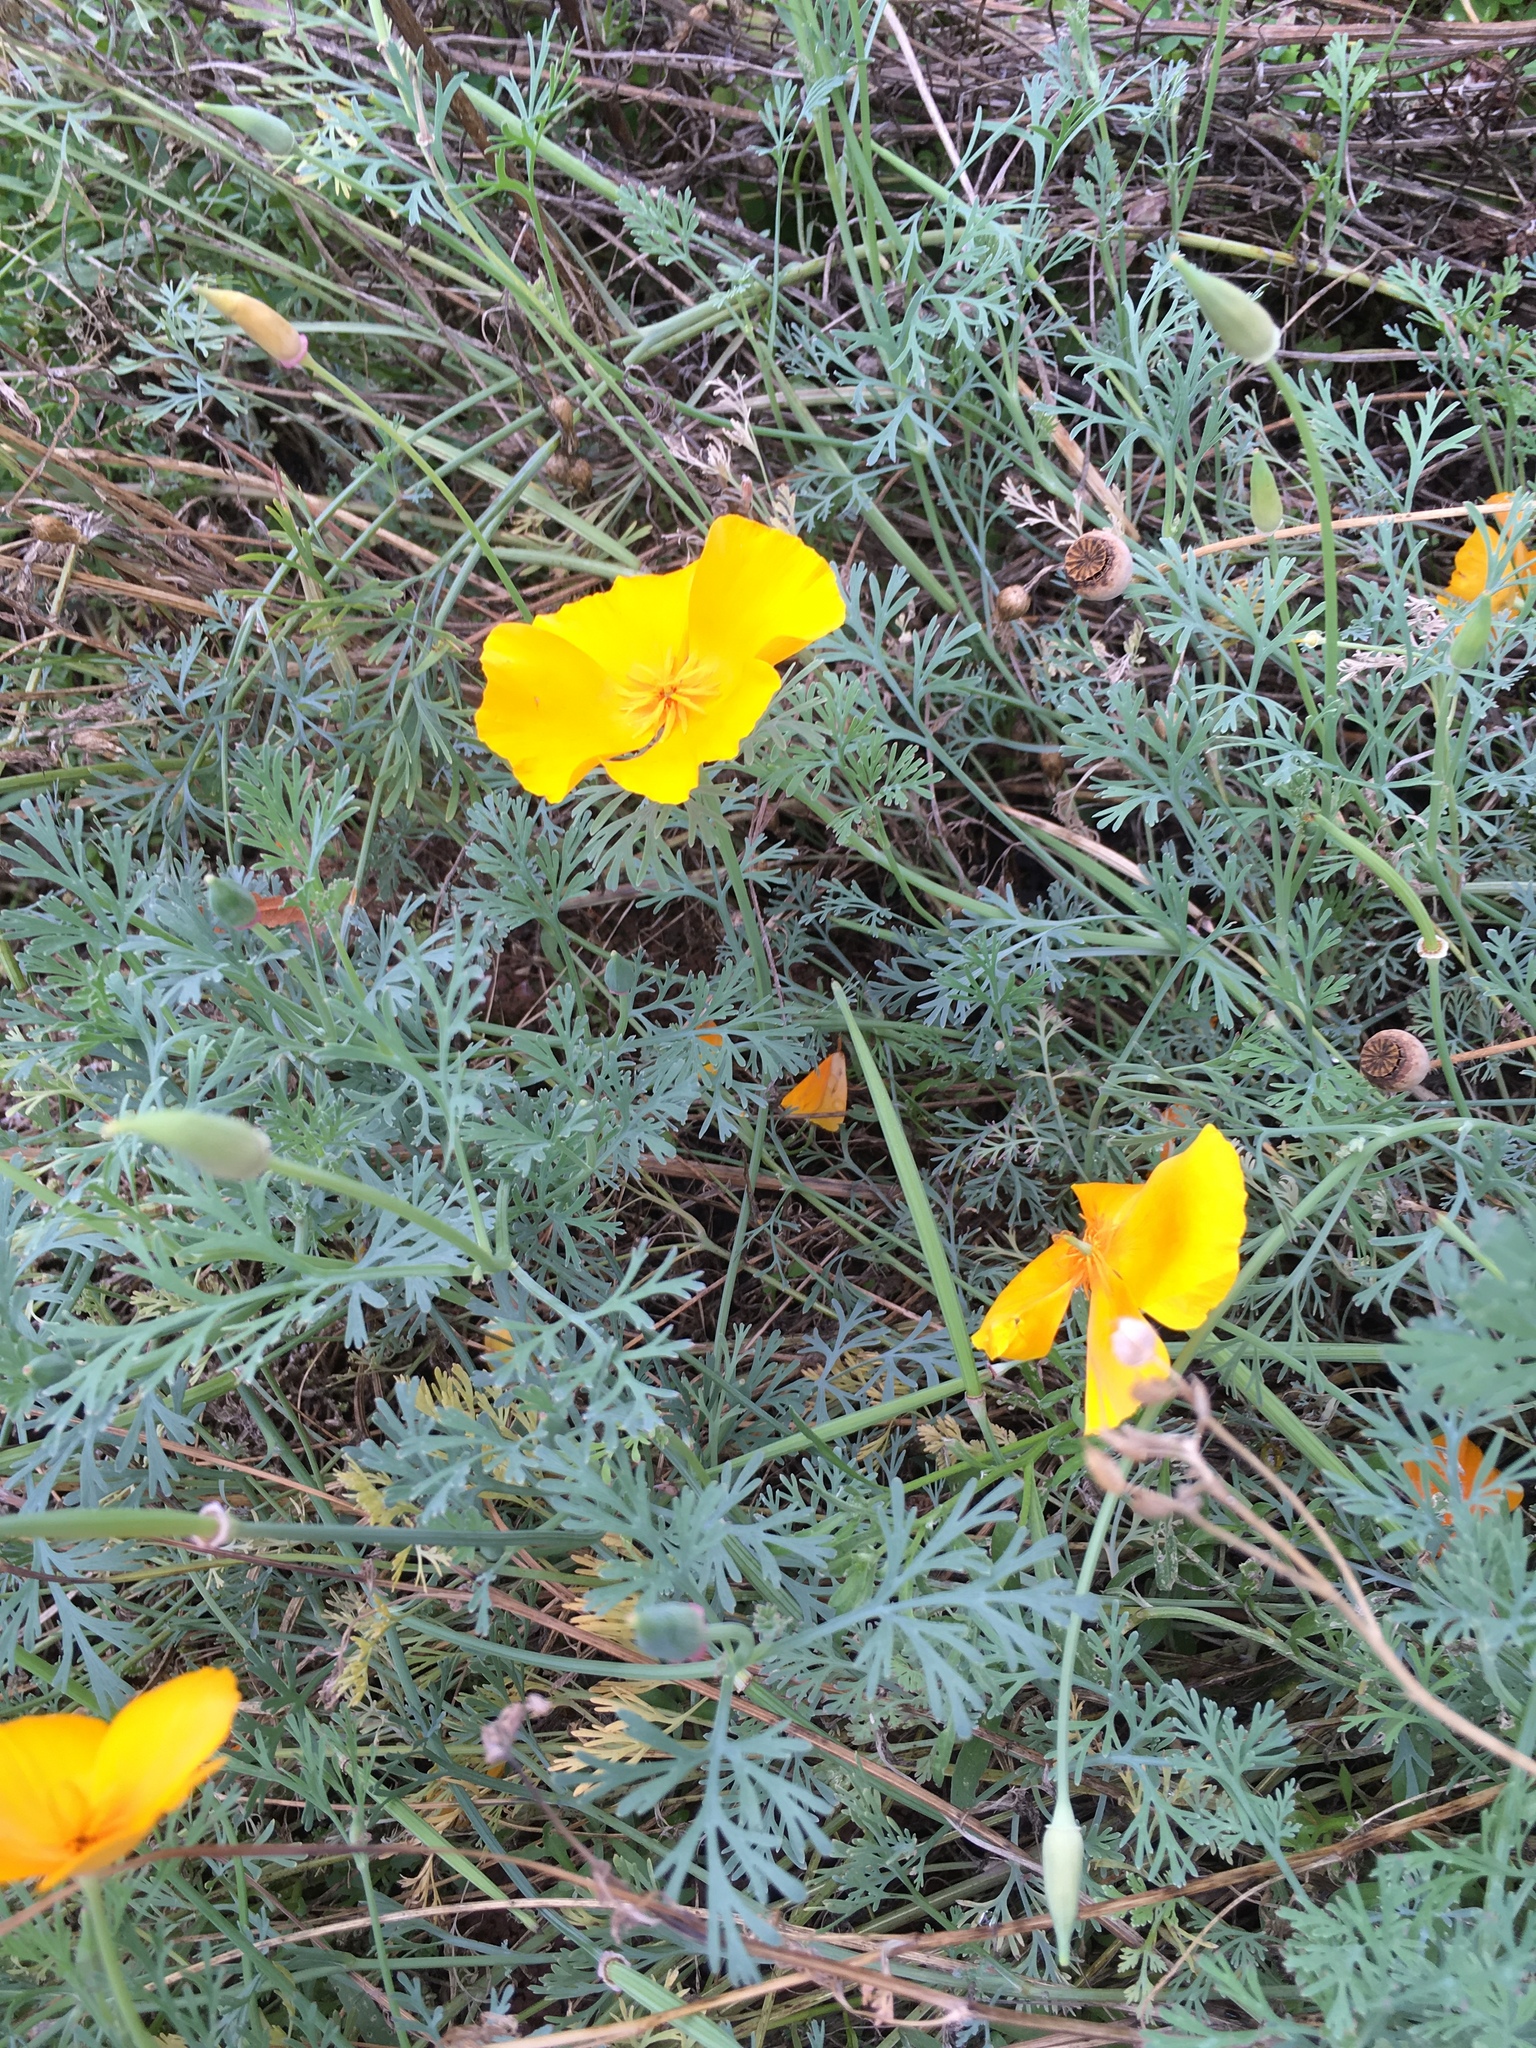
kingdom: Plantae
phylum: Tracheophyta
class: Magnoliopsida
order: Ranunculales
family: Papaveraceae
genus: Eschscholzia
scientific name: Eschscholzia californica
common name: California poppy
